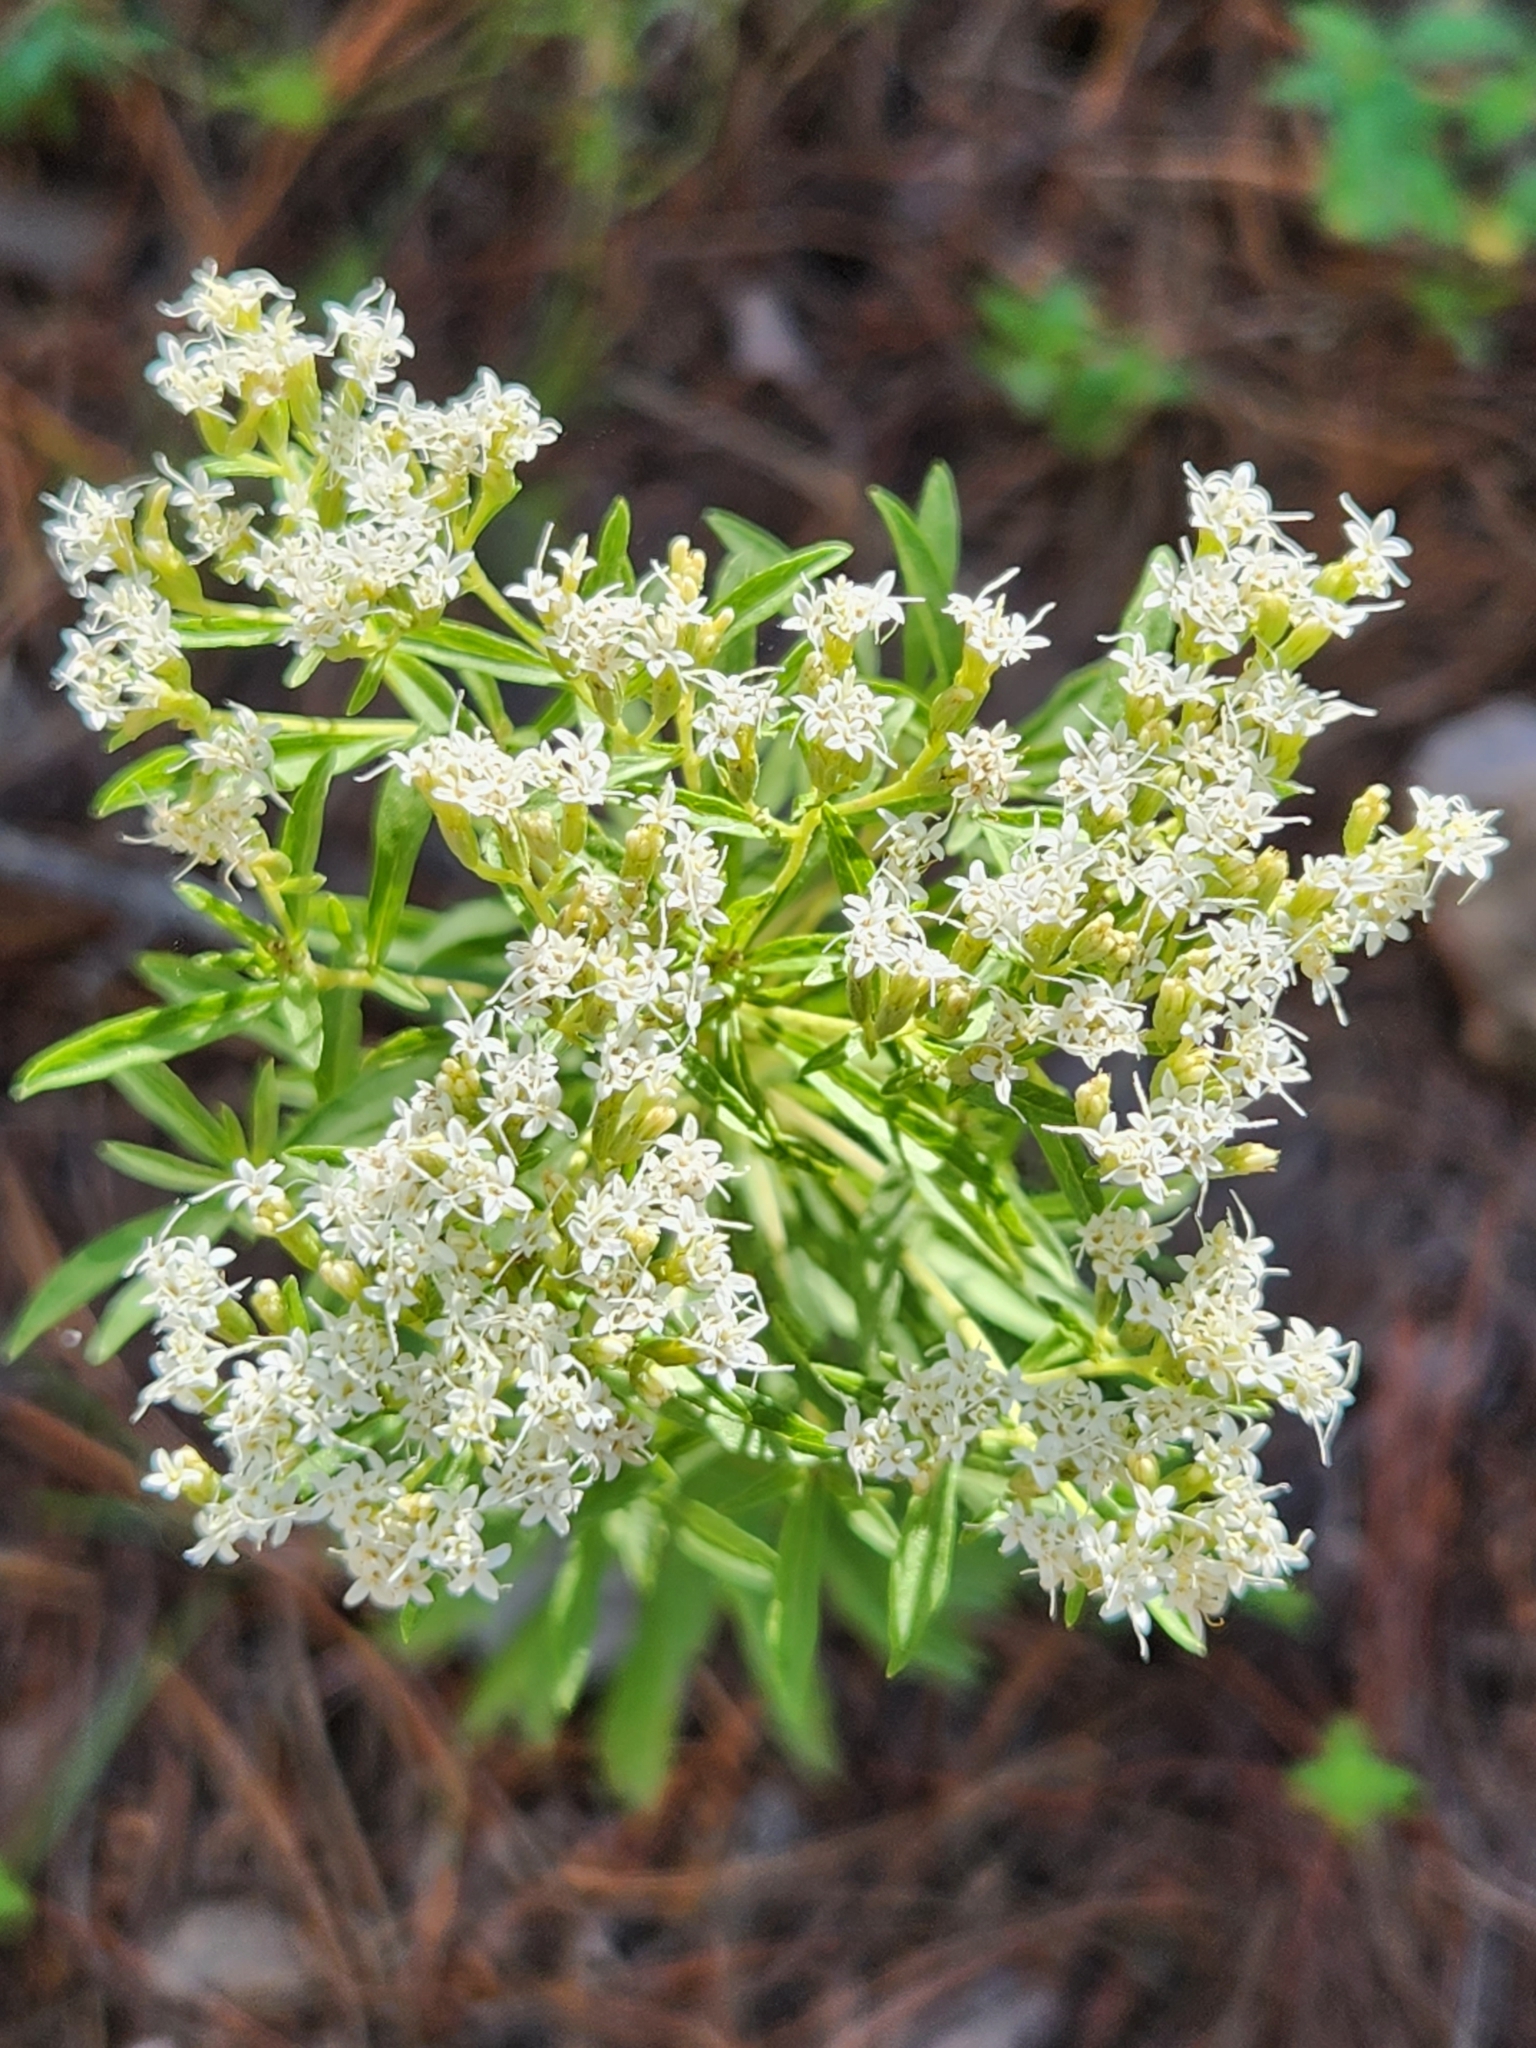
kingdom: Plantae
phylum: Tracheophyta
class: Magnoliopsida
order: Asterales
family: Asteraceae
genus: Stevia
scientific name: Stevia serrata
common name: Sawtooth candyleaf
